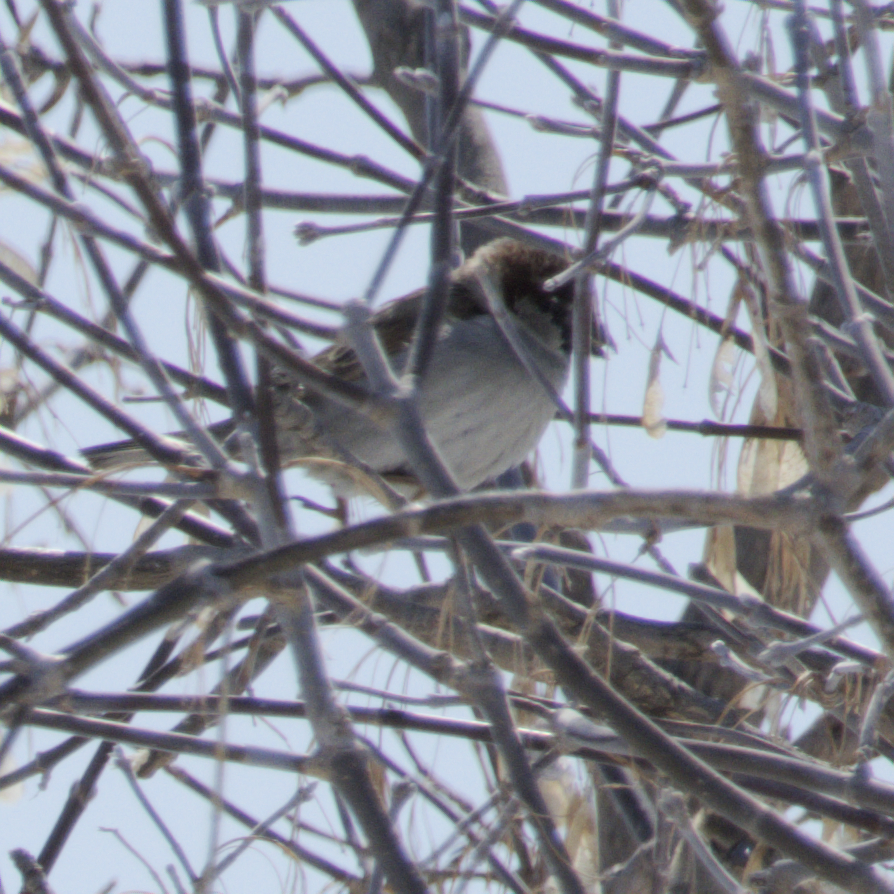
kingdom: Animalia
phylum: Chordata
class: Aves
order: Passeriformes
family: Passeridae
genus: Passer
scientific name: Passer domesticus
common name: House sparrow
